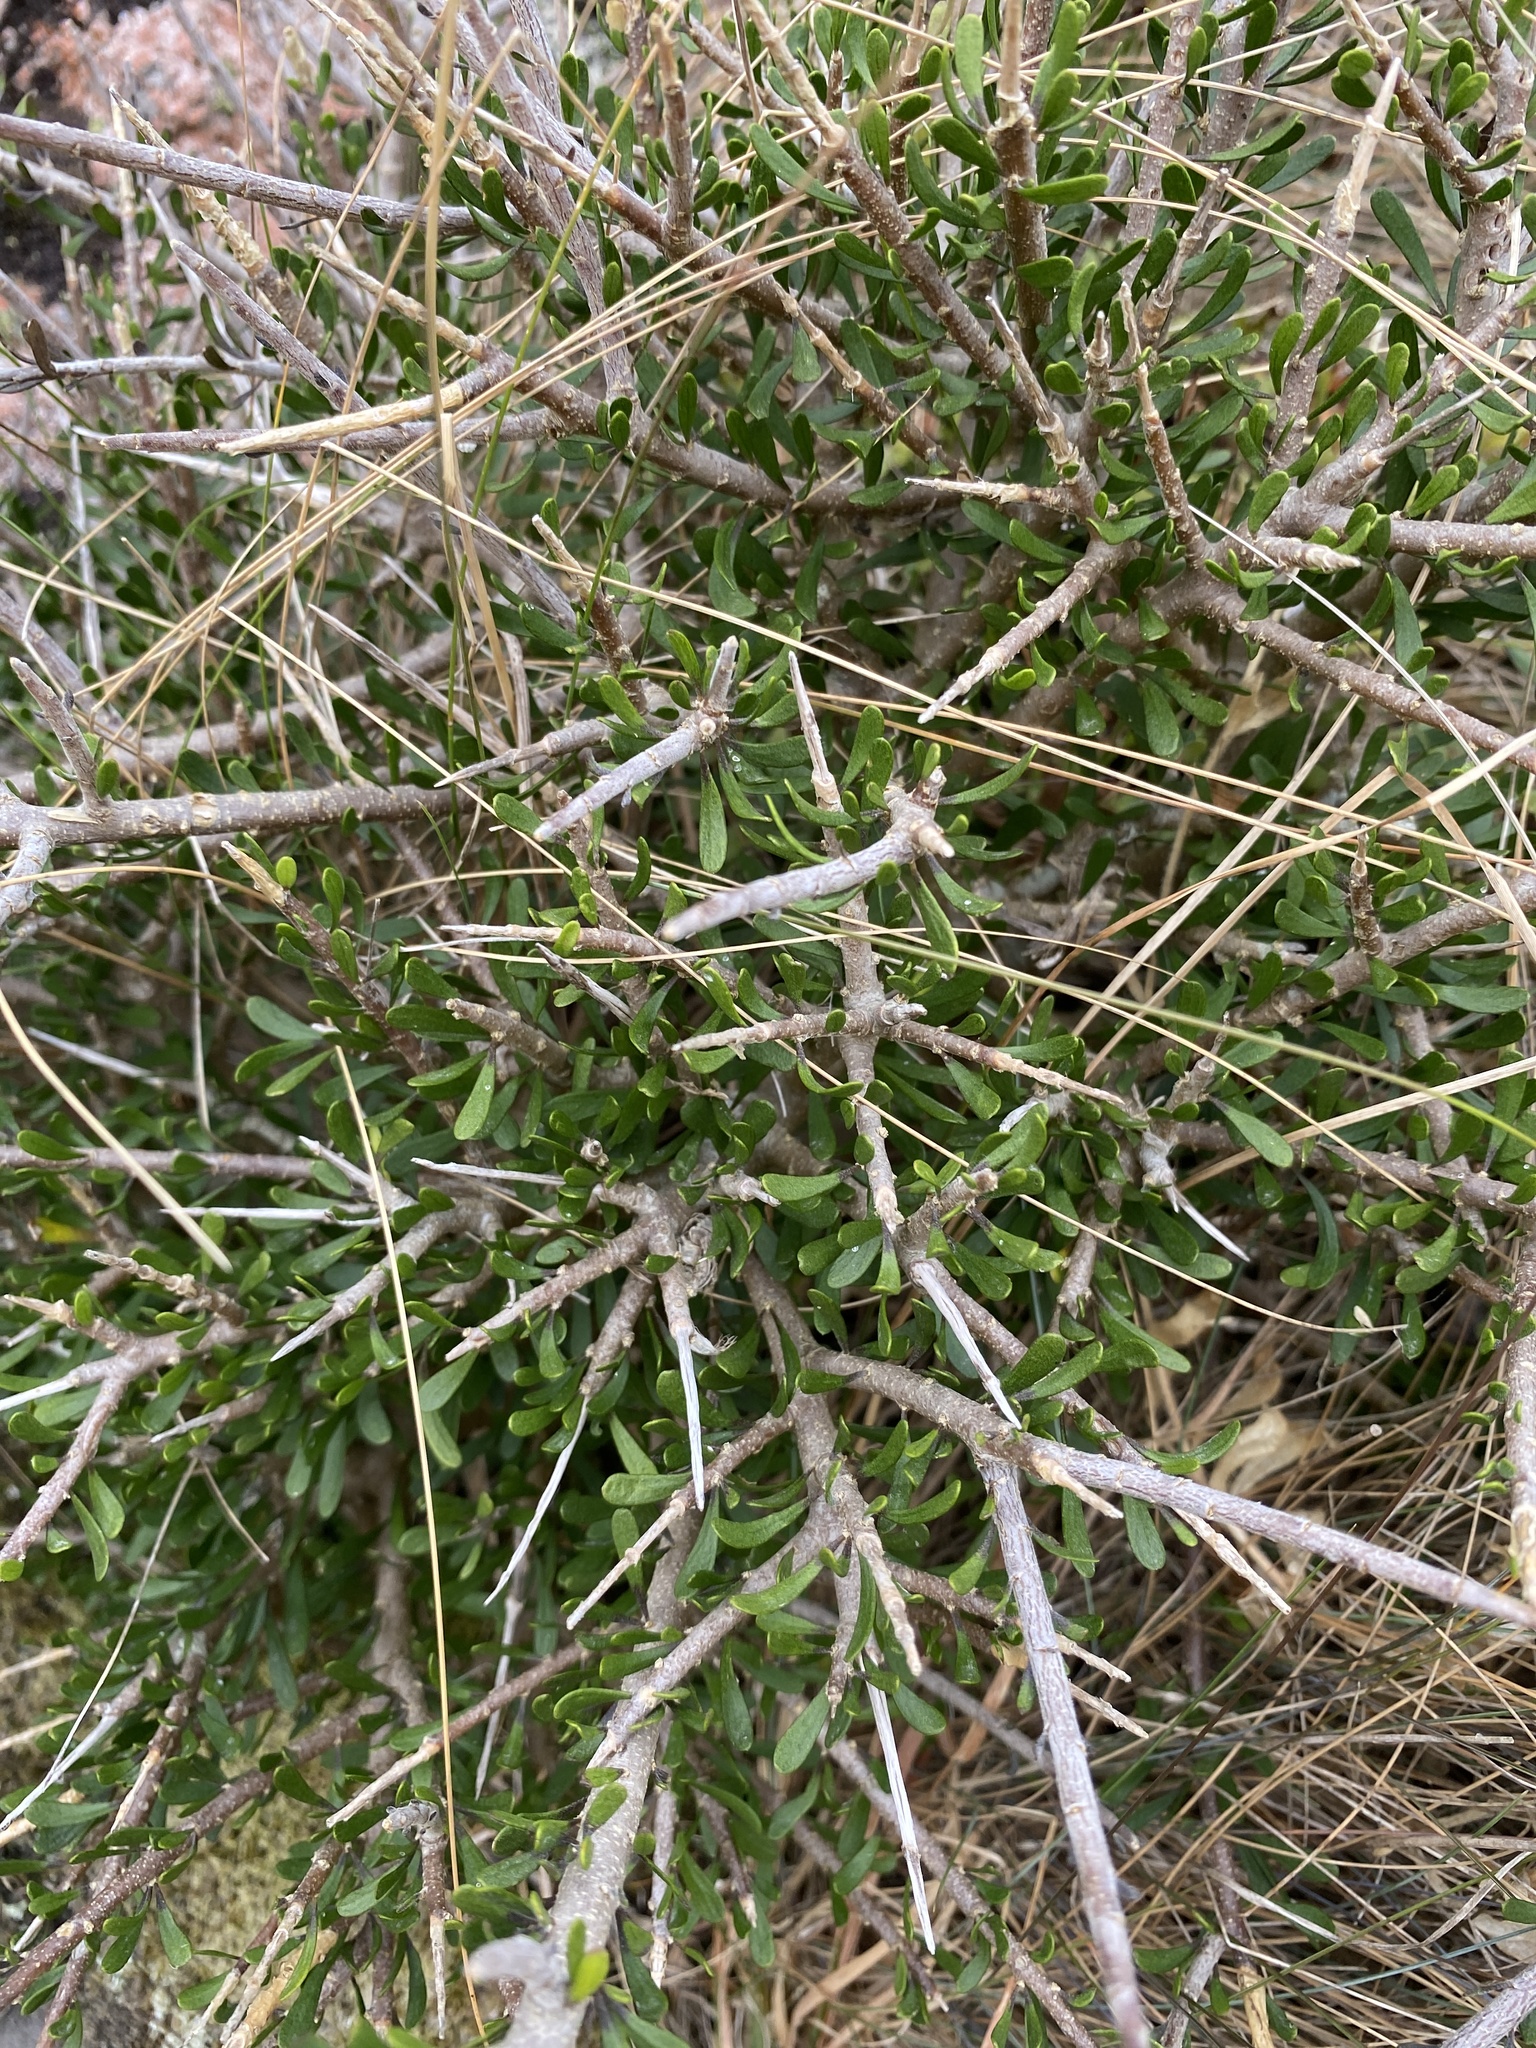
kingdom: Plantae
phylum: Tracheophyta
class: Magnoliopsida
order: Malpighiales
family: Violaceae
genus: Melicytus
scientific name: Melicytus alpinus
